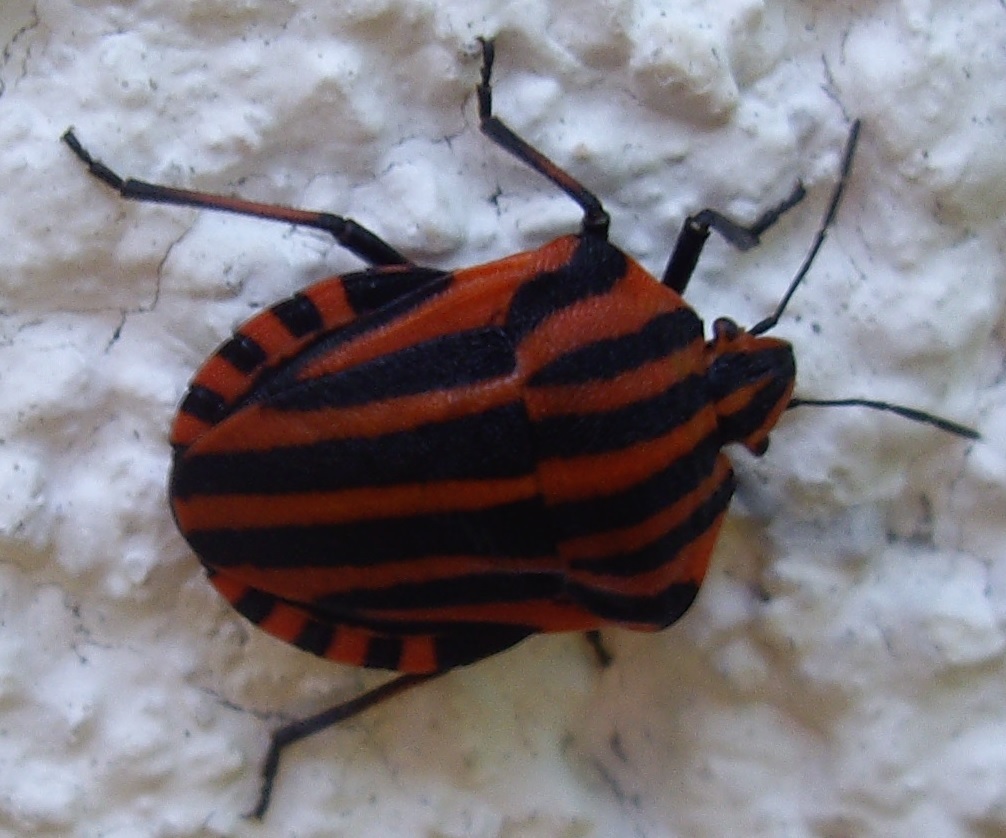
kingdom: Animalia
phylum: Arthropoda
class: Insecta
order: Hemiptera
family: Pentatomidae
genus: Graphosoma
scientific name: Graphosoma italicum
